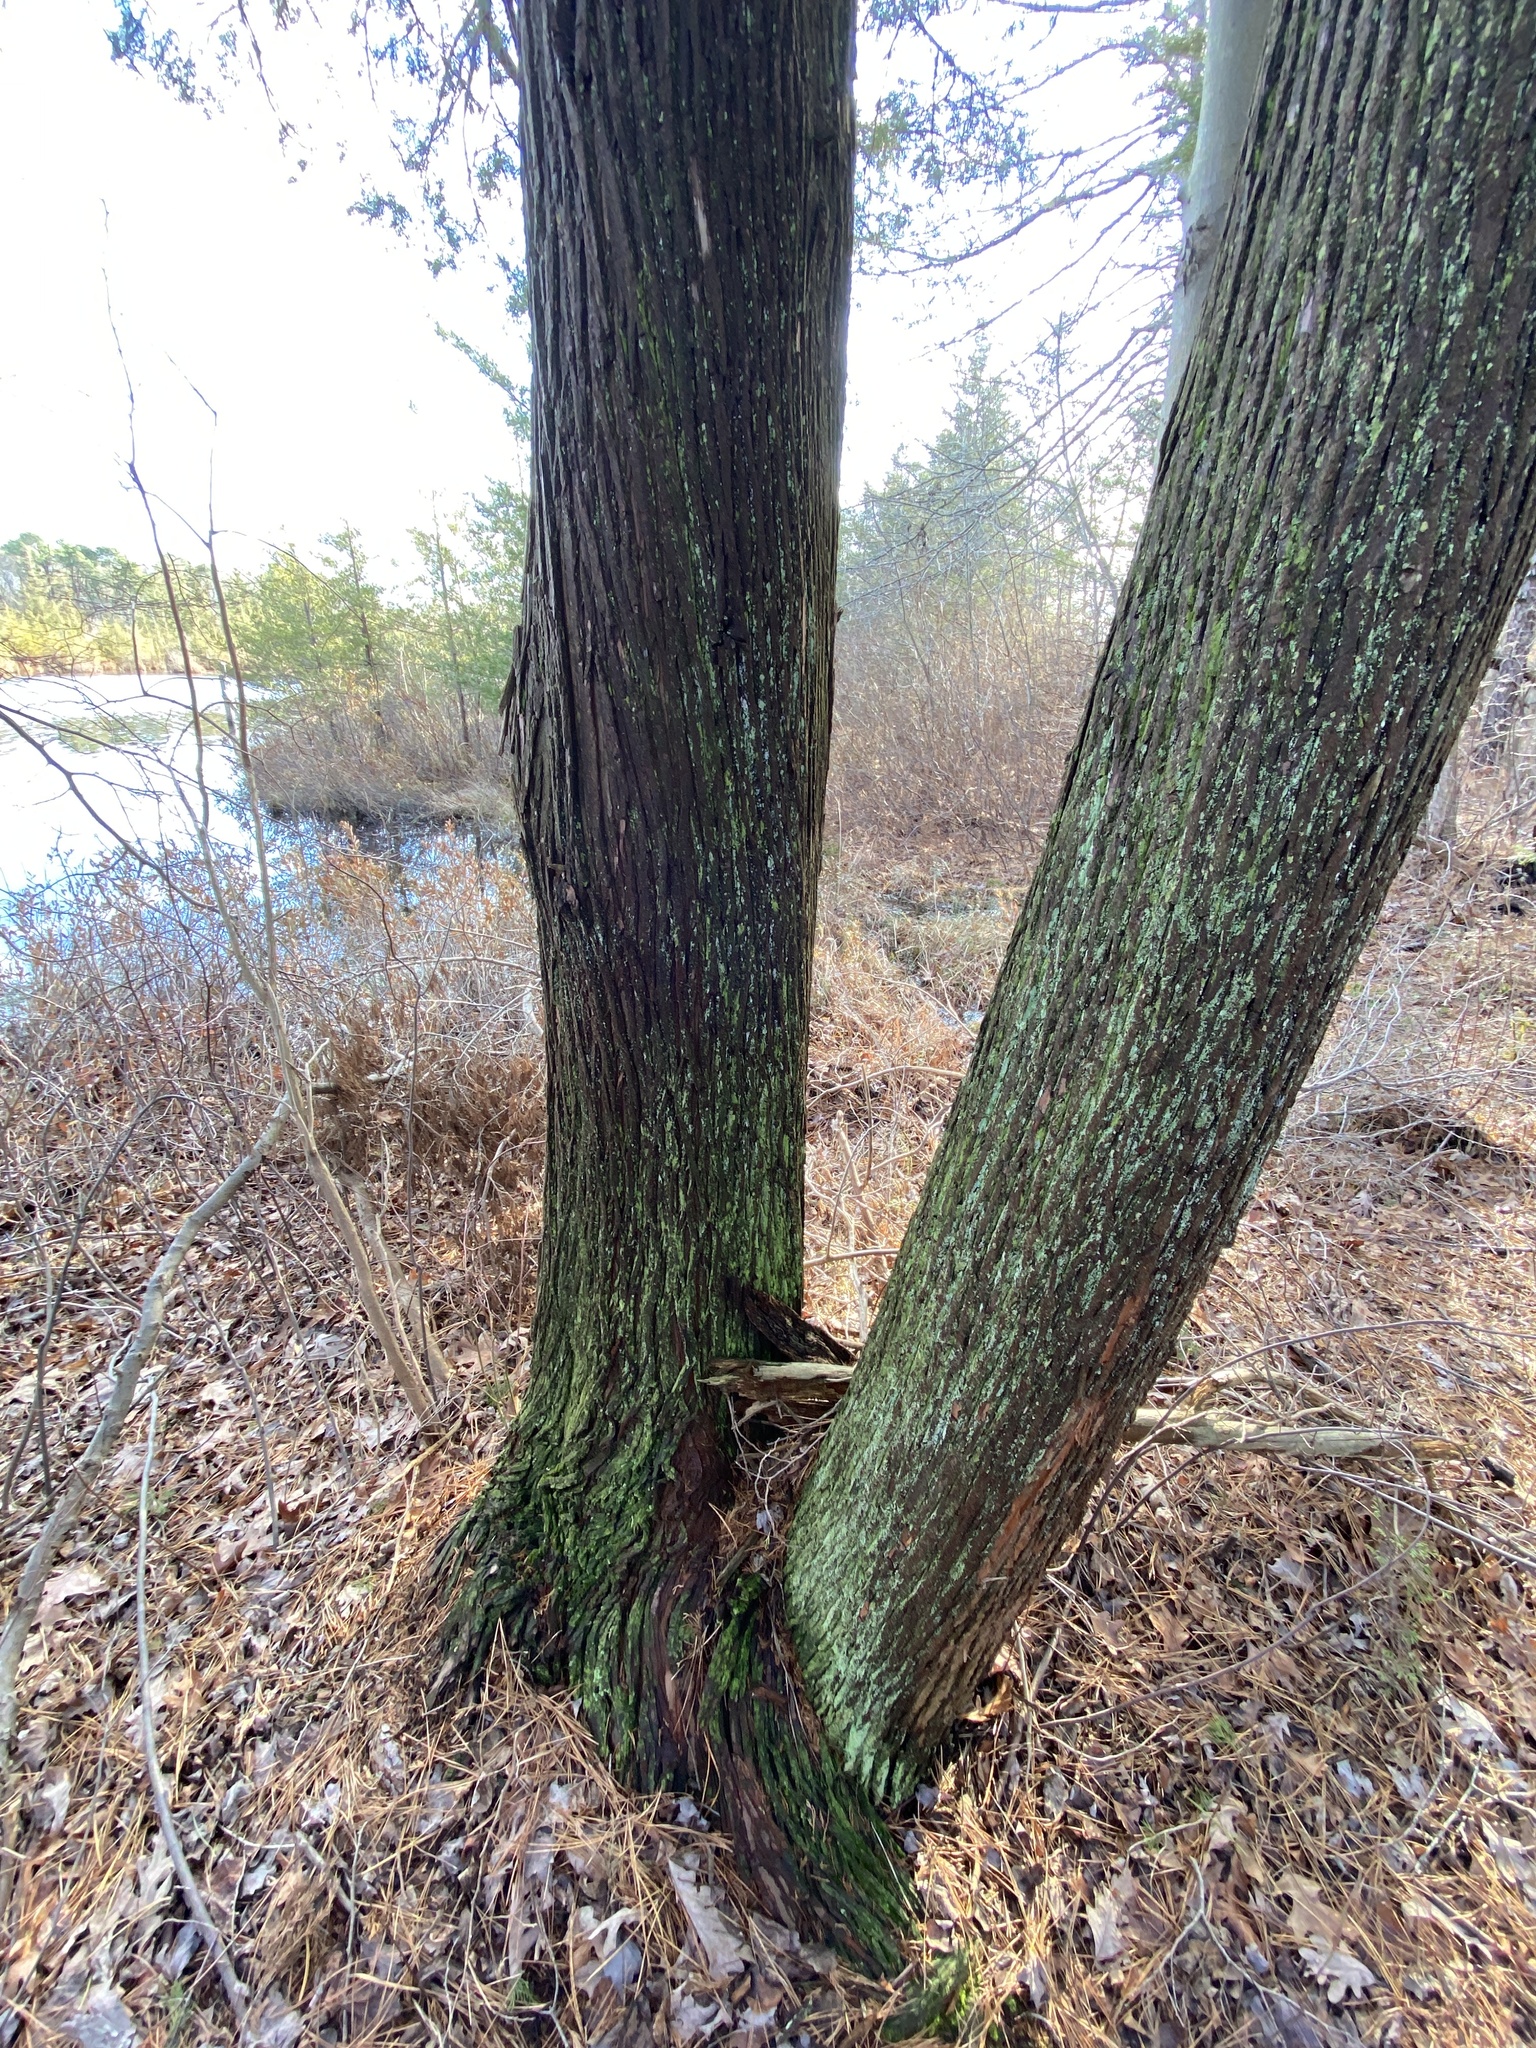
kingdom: Plantae
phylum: Tracheophyta
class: Pinopsida
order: Pinales
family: Cupressaceae
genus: Chamaecyparis
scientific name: Chamaecyparis thyoides
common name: Atlantic white cedar
